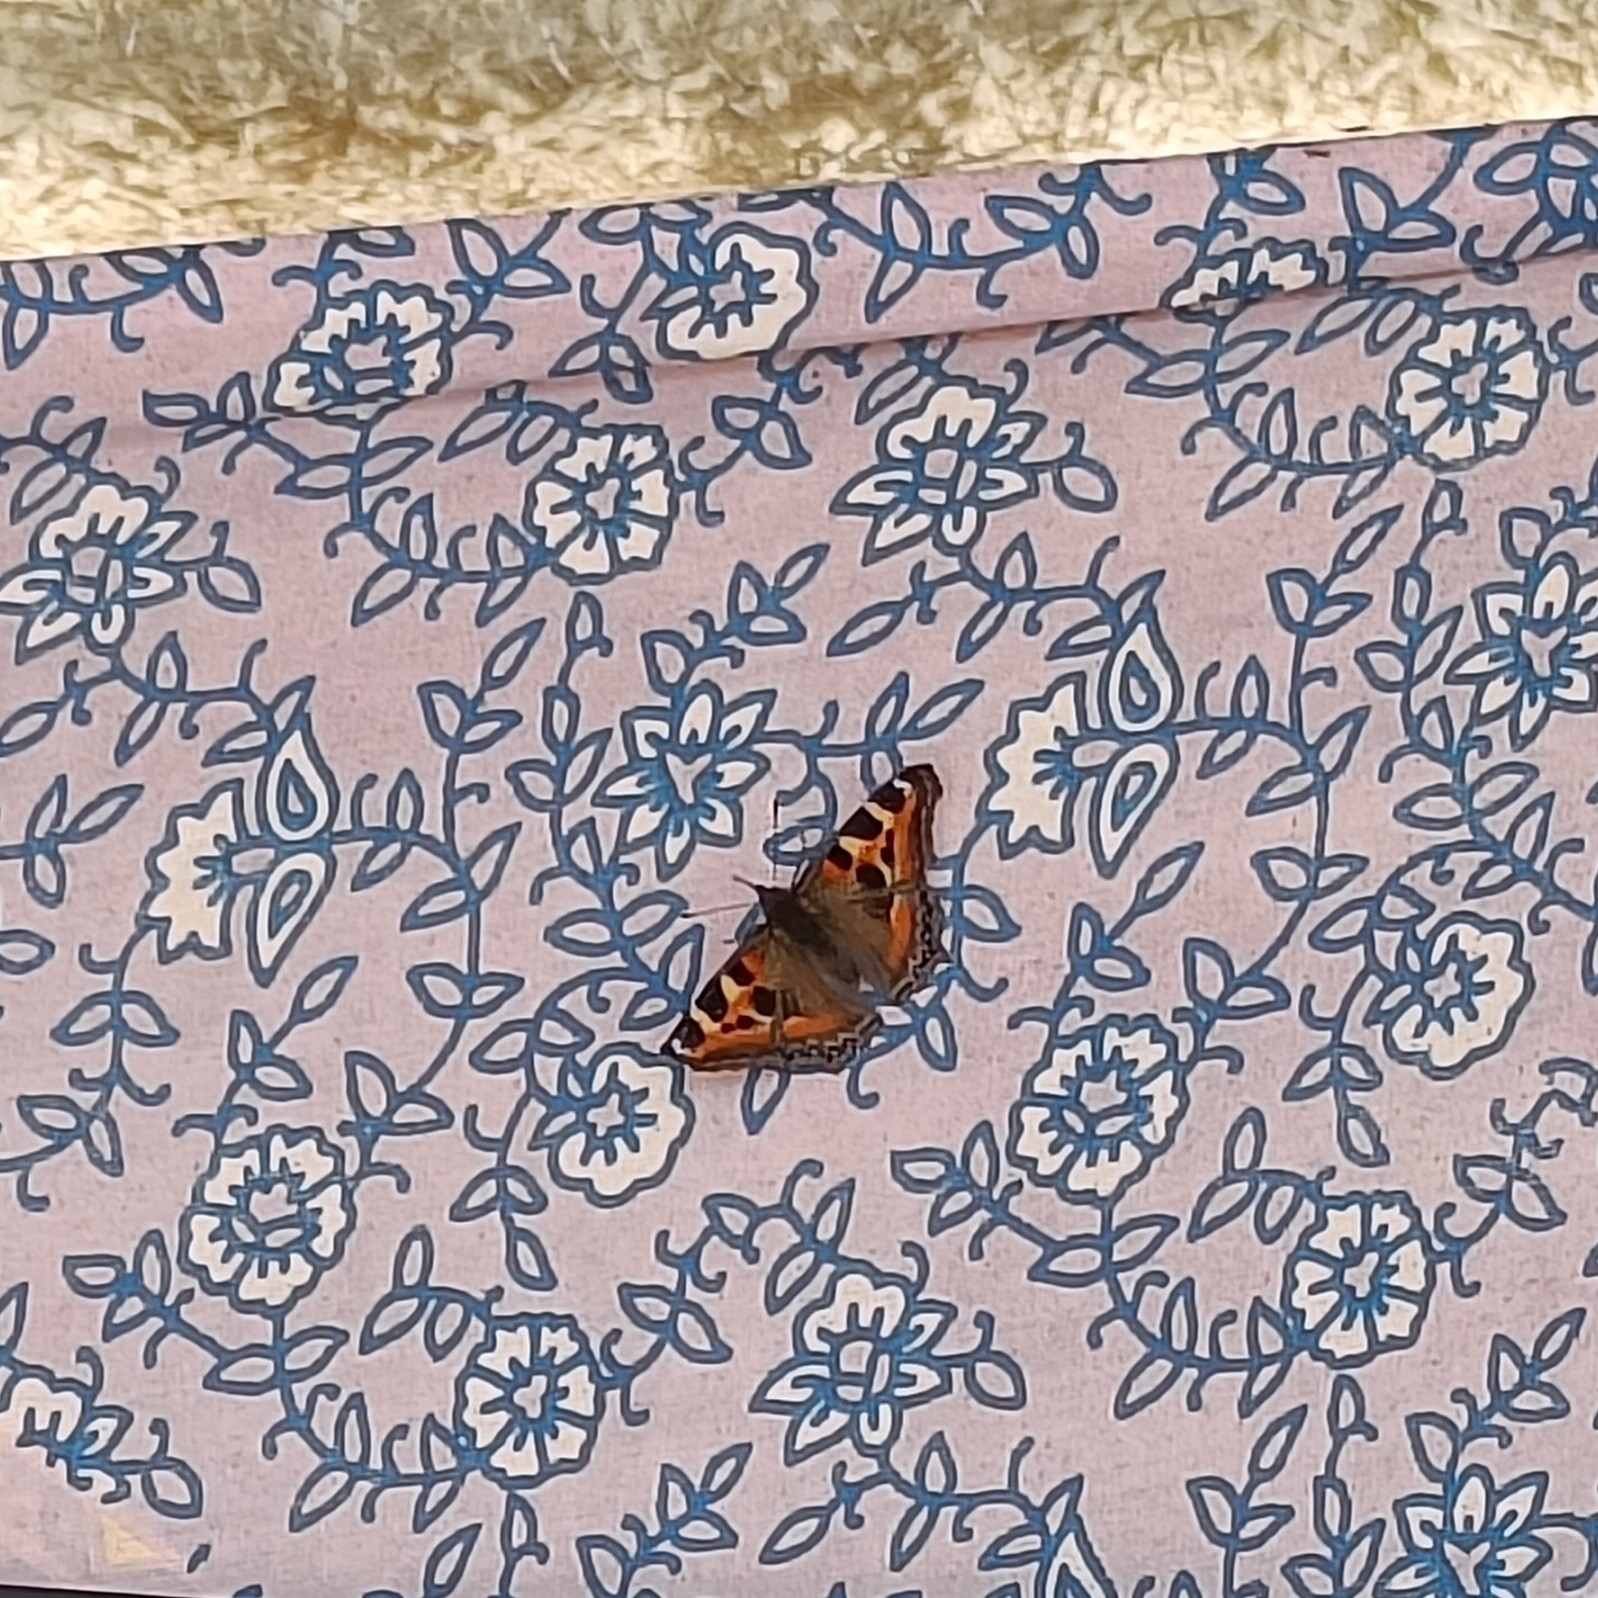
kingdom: Animalia
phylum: Arthropoda
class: Insecta
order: Lepidoptera
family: Nymphalidae
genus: Aglais
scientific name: Aglais caschmirensis
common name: Indian tortoiseshell
